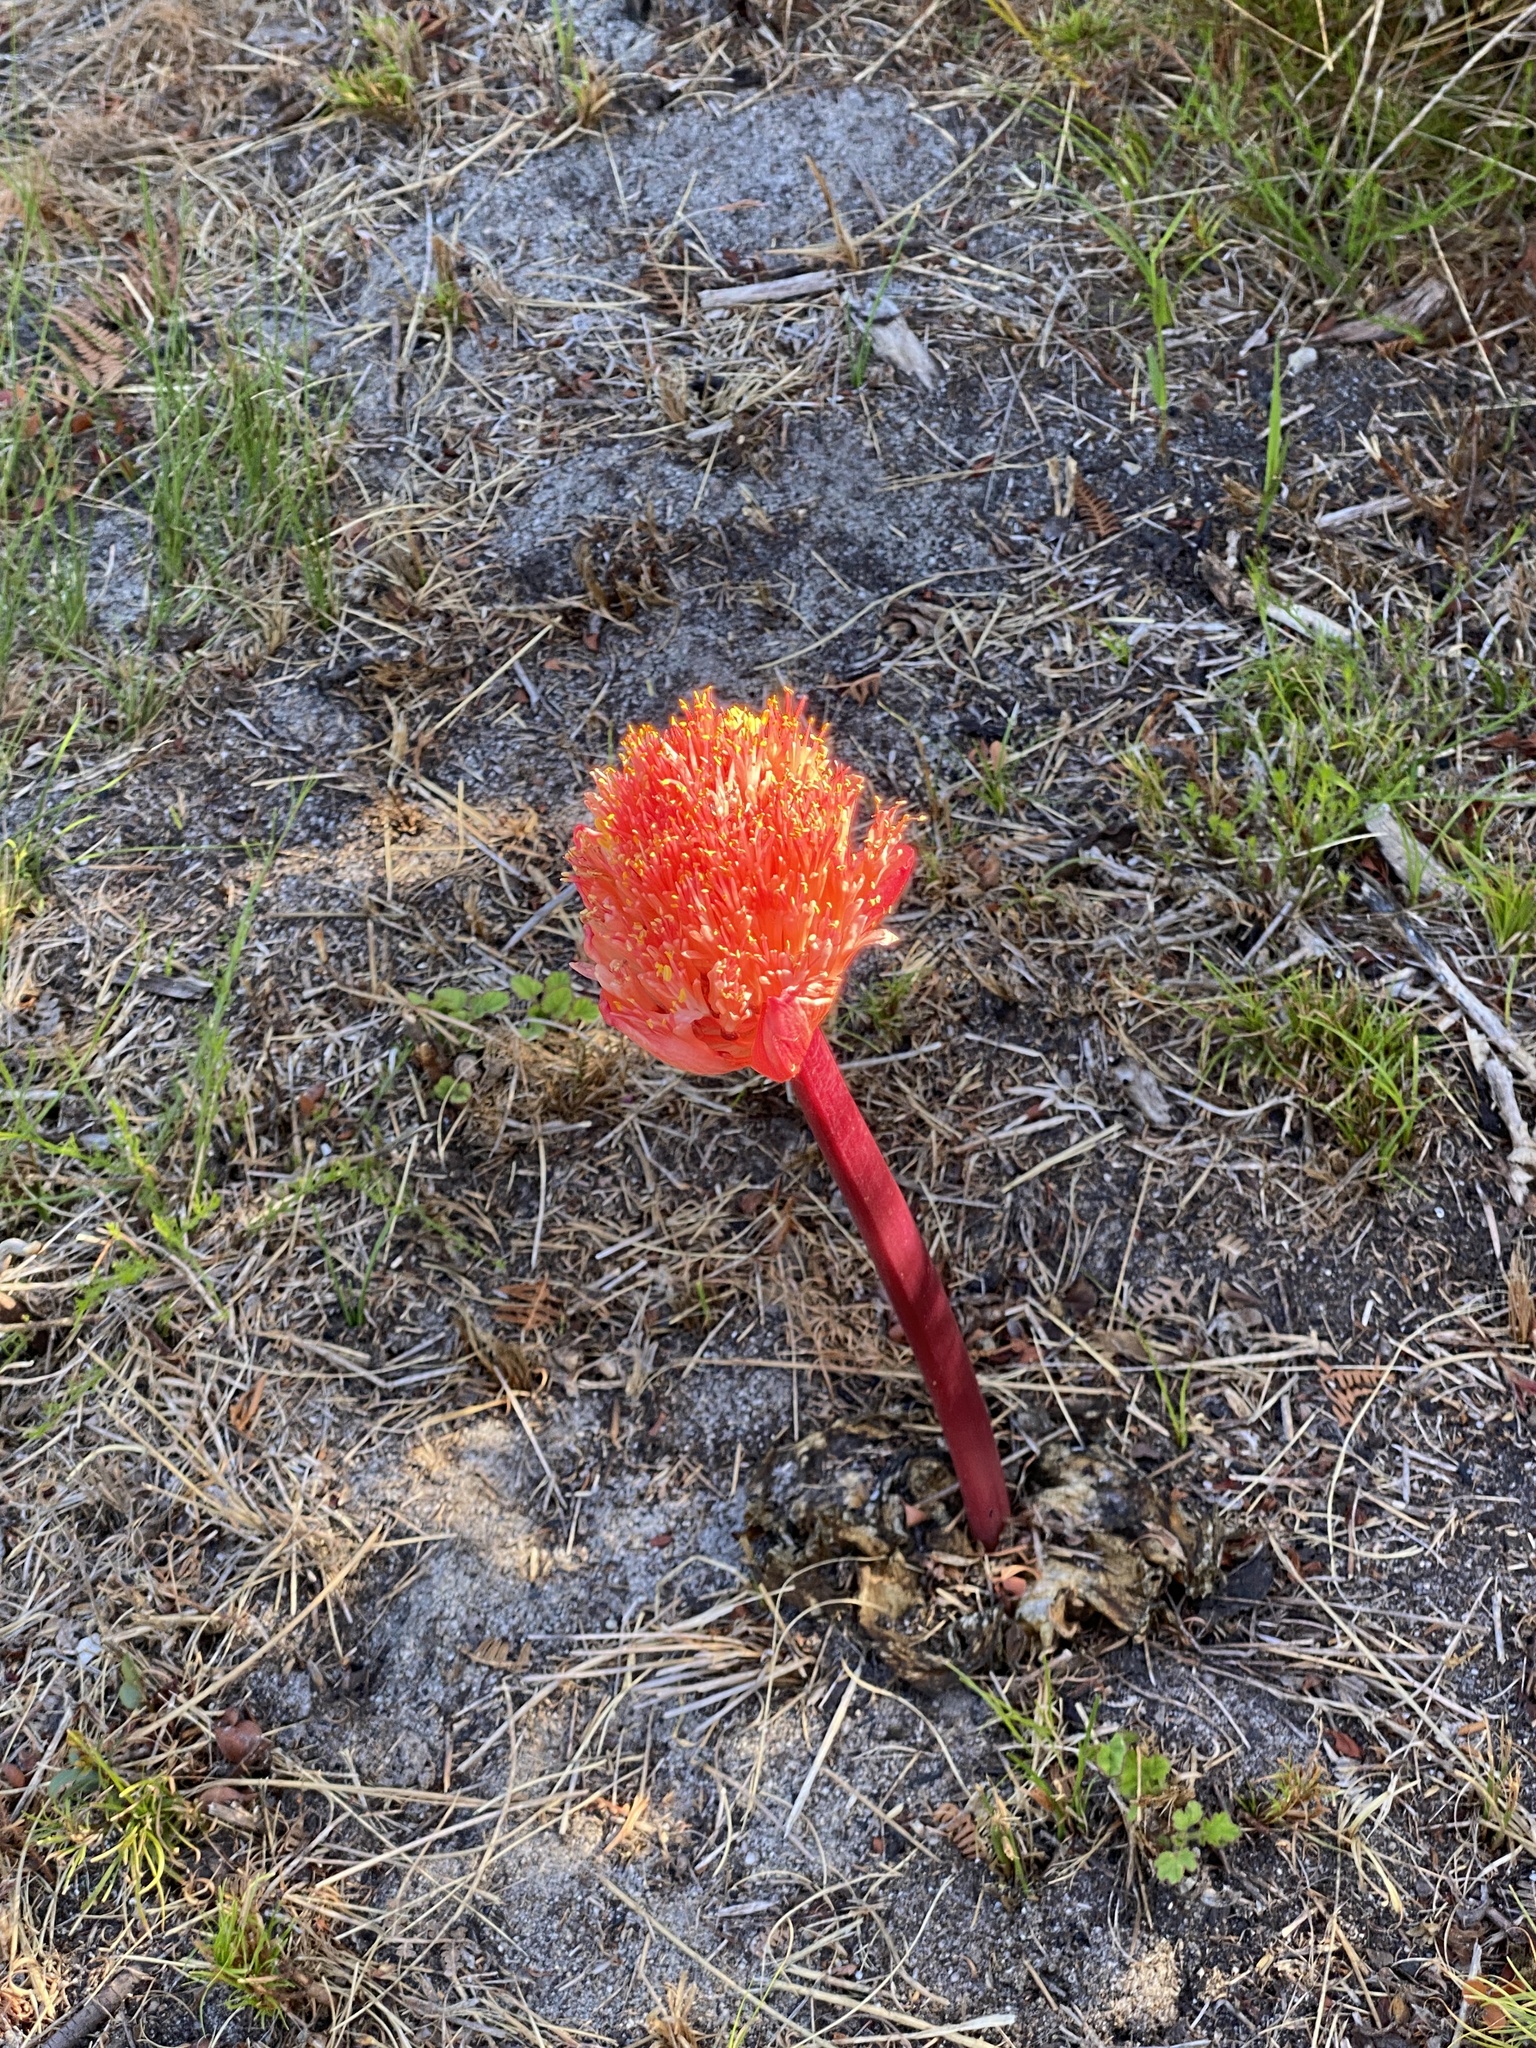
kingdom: Plantae
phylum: Tracheophyta
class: Liliopsida
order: Asparagales
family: Amaryllidaceae
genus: Haemanthus
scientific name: Haemanthus sanguineus
